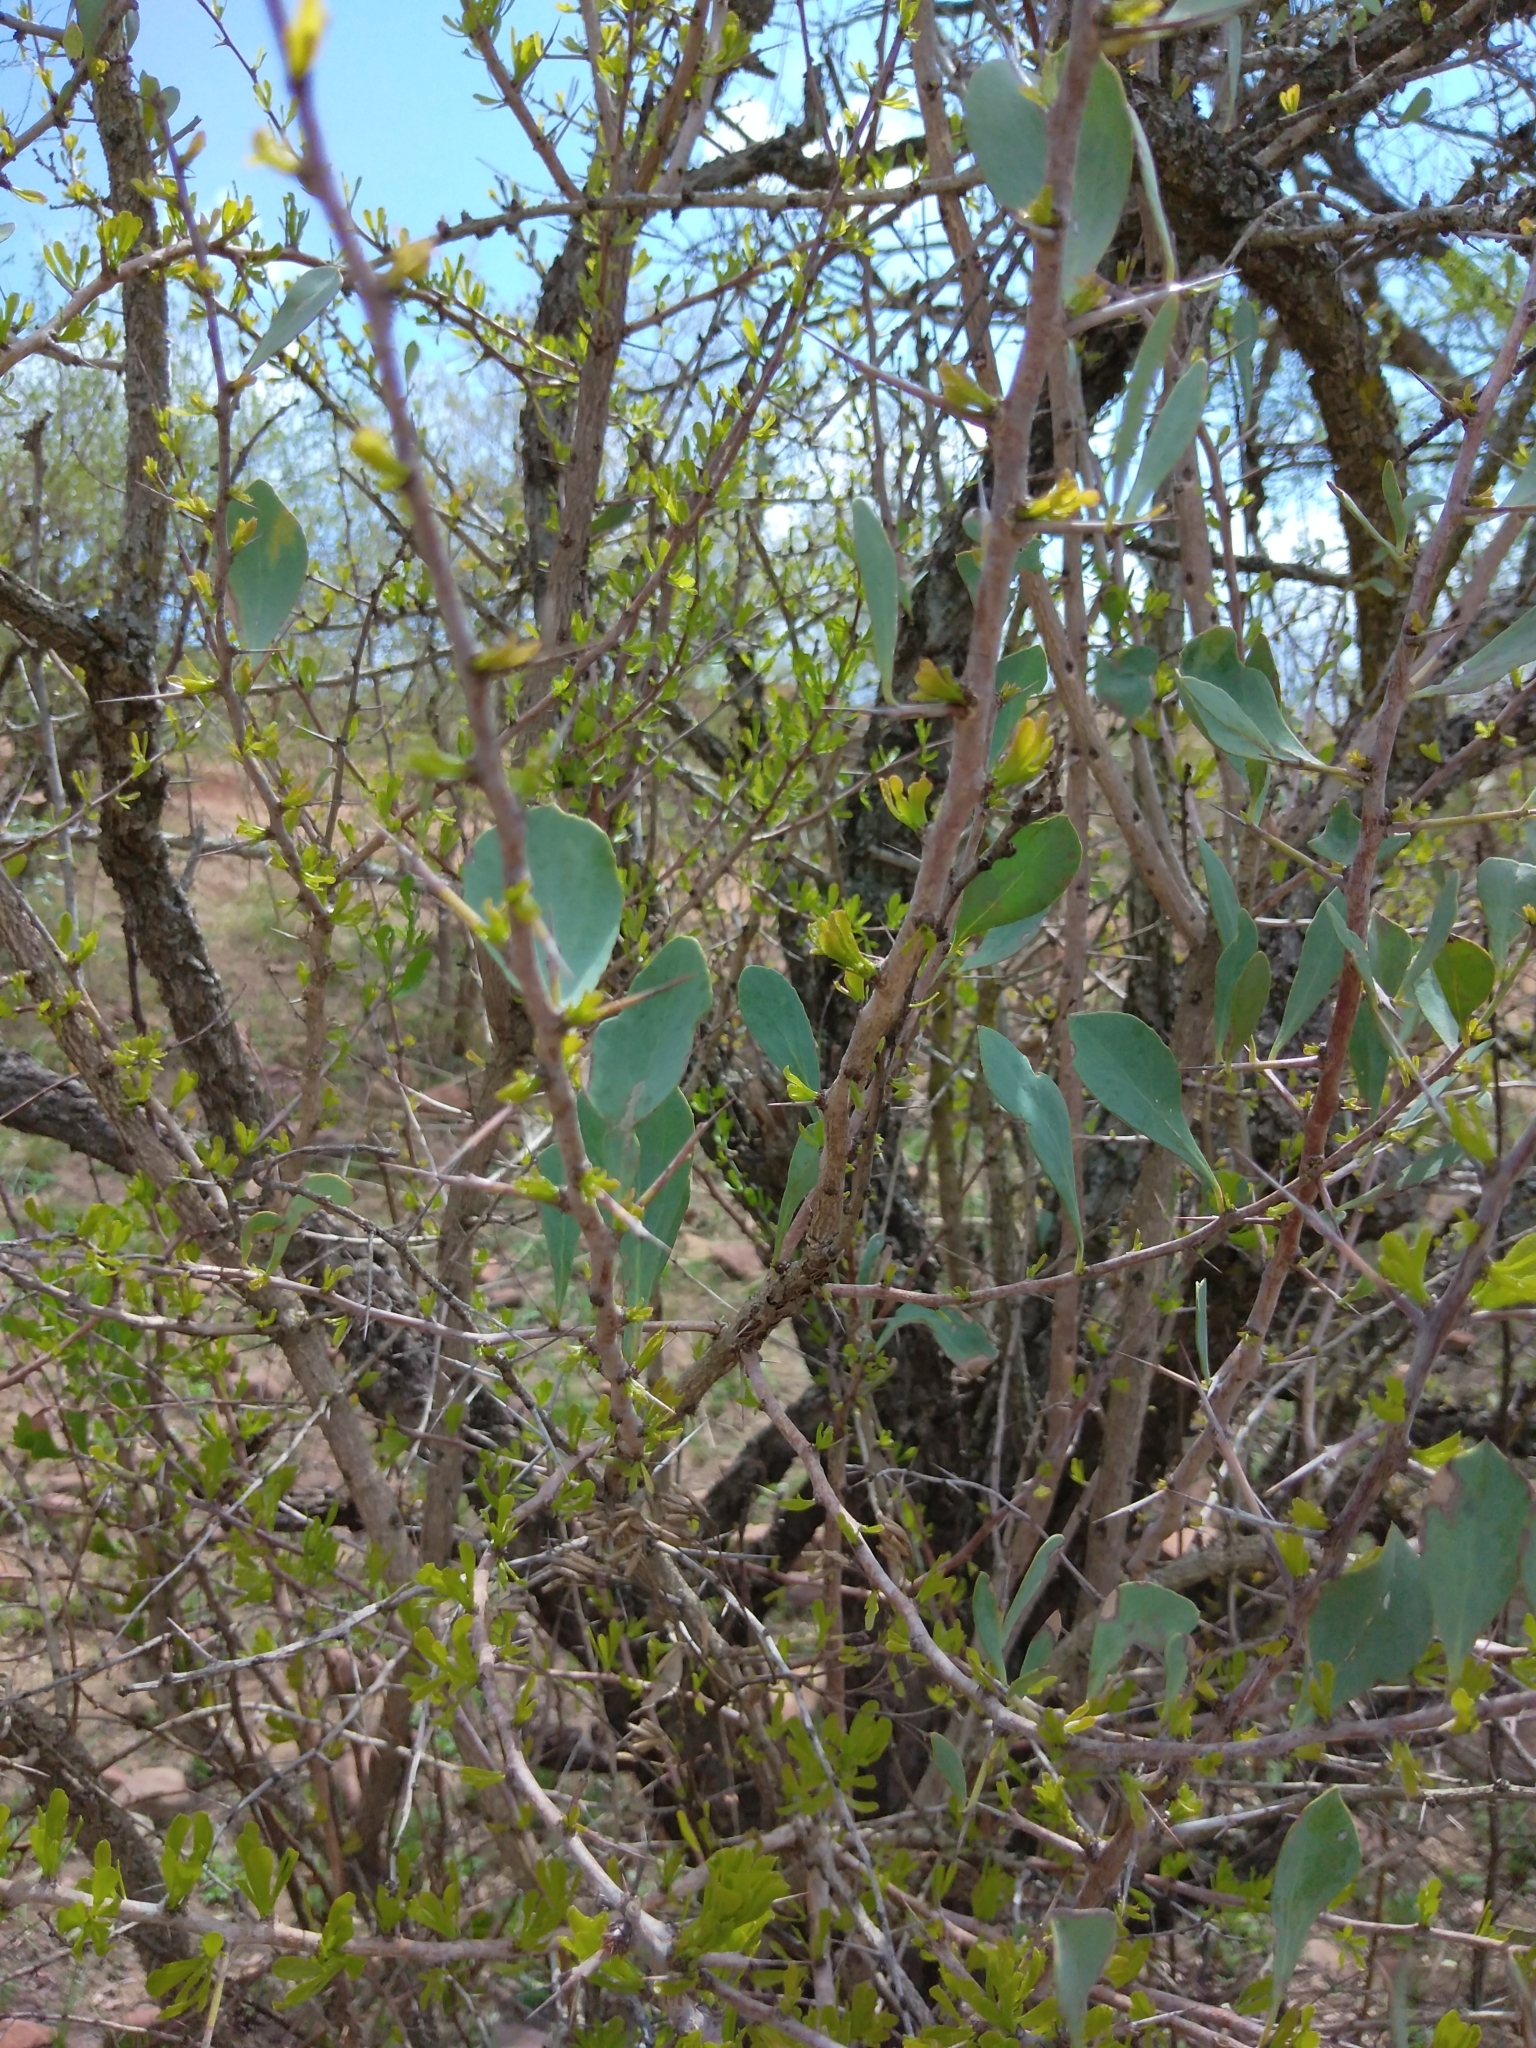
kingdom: Plantae
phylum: Tracheophyta
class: Magnoliopsida
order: Celastrales
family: Celastraceae
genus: Gymnosporia
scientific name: Gymnosporia glaucophylla
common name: Blue spike-thorn
